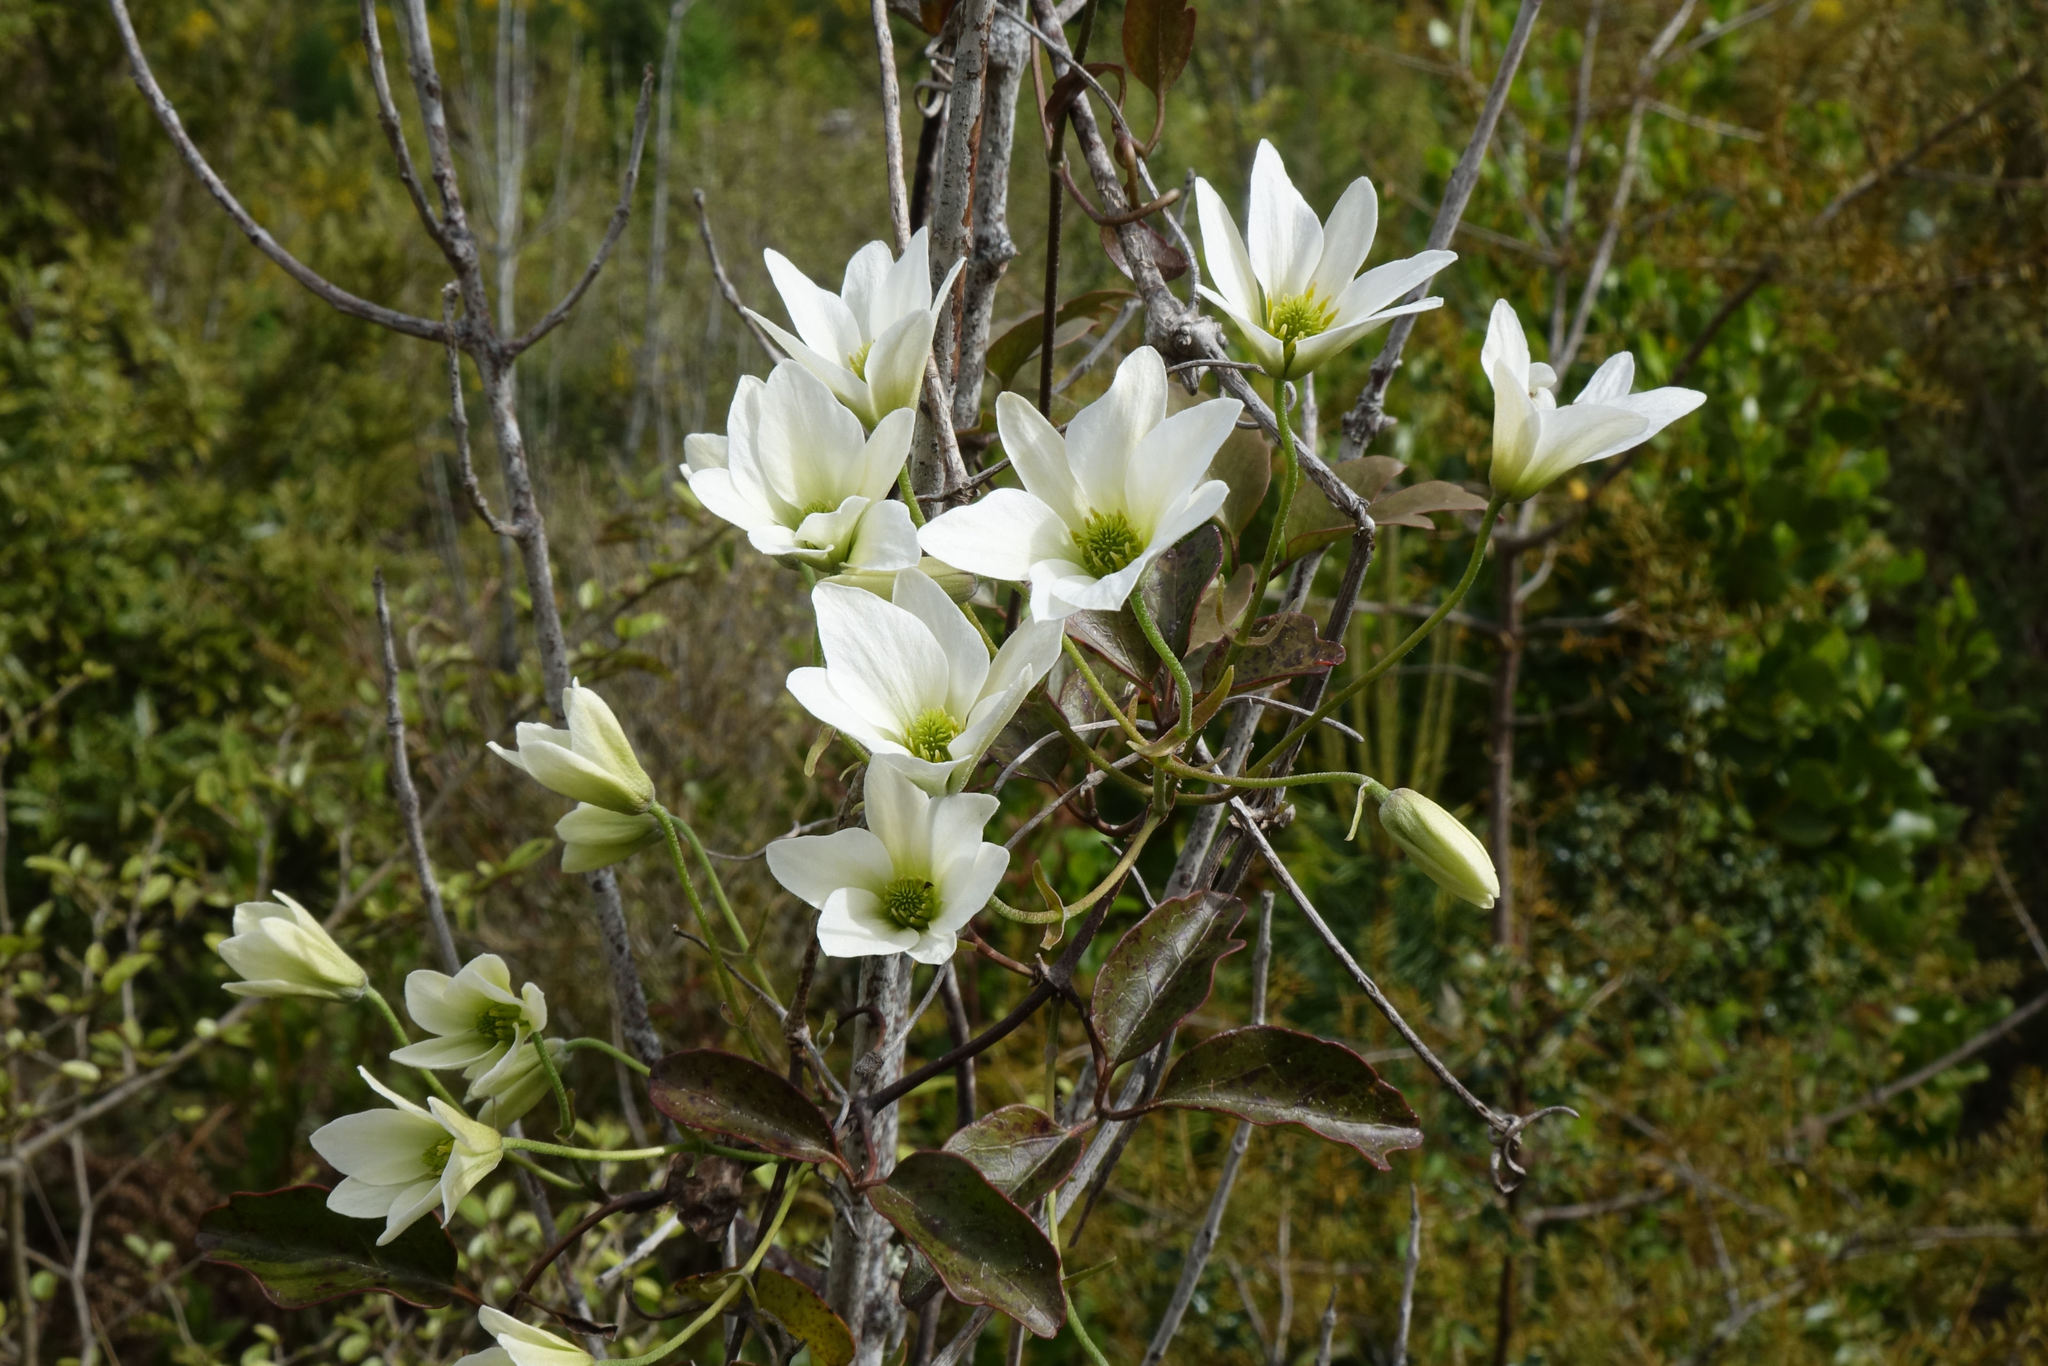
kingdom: Plantae
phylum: Tracheophyta
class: Magnoliopsida
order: Ranunculales
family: Ranunculaceae
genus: Clematis
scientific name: Clematis paniculata
